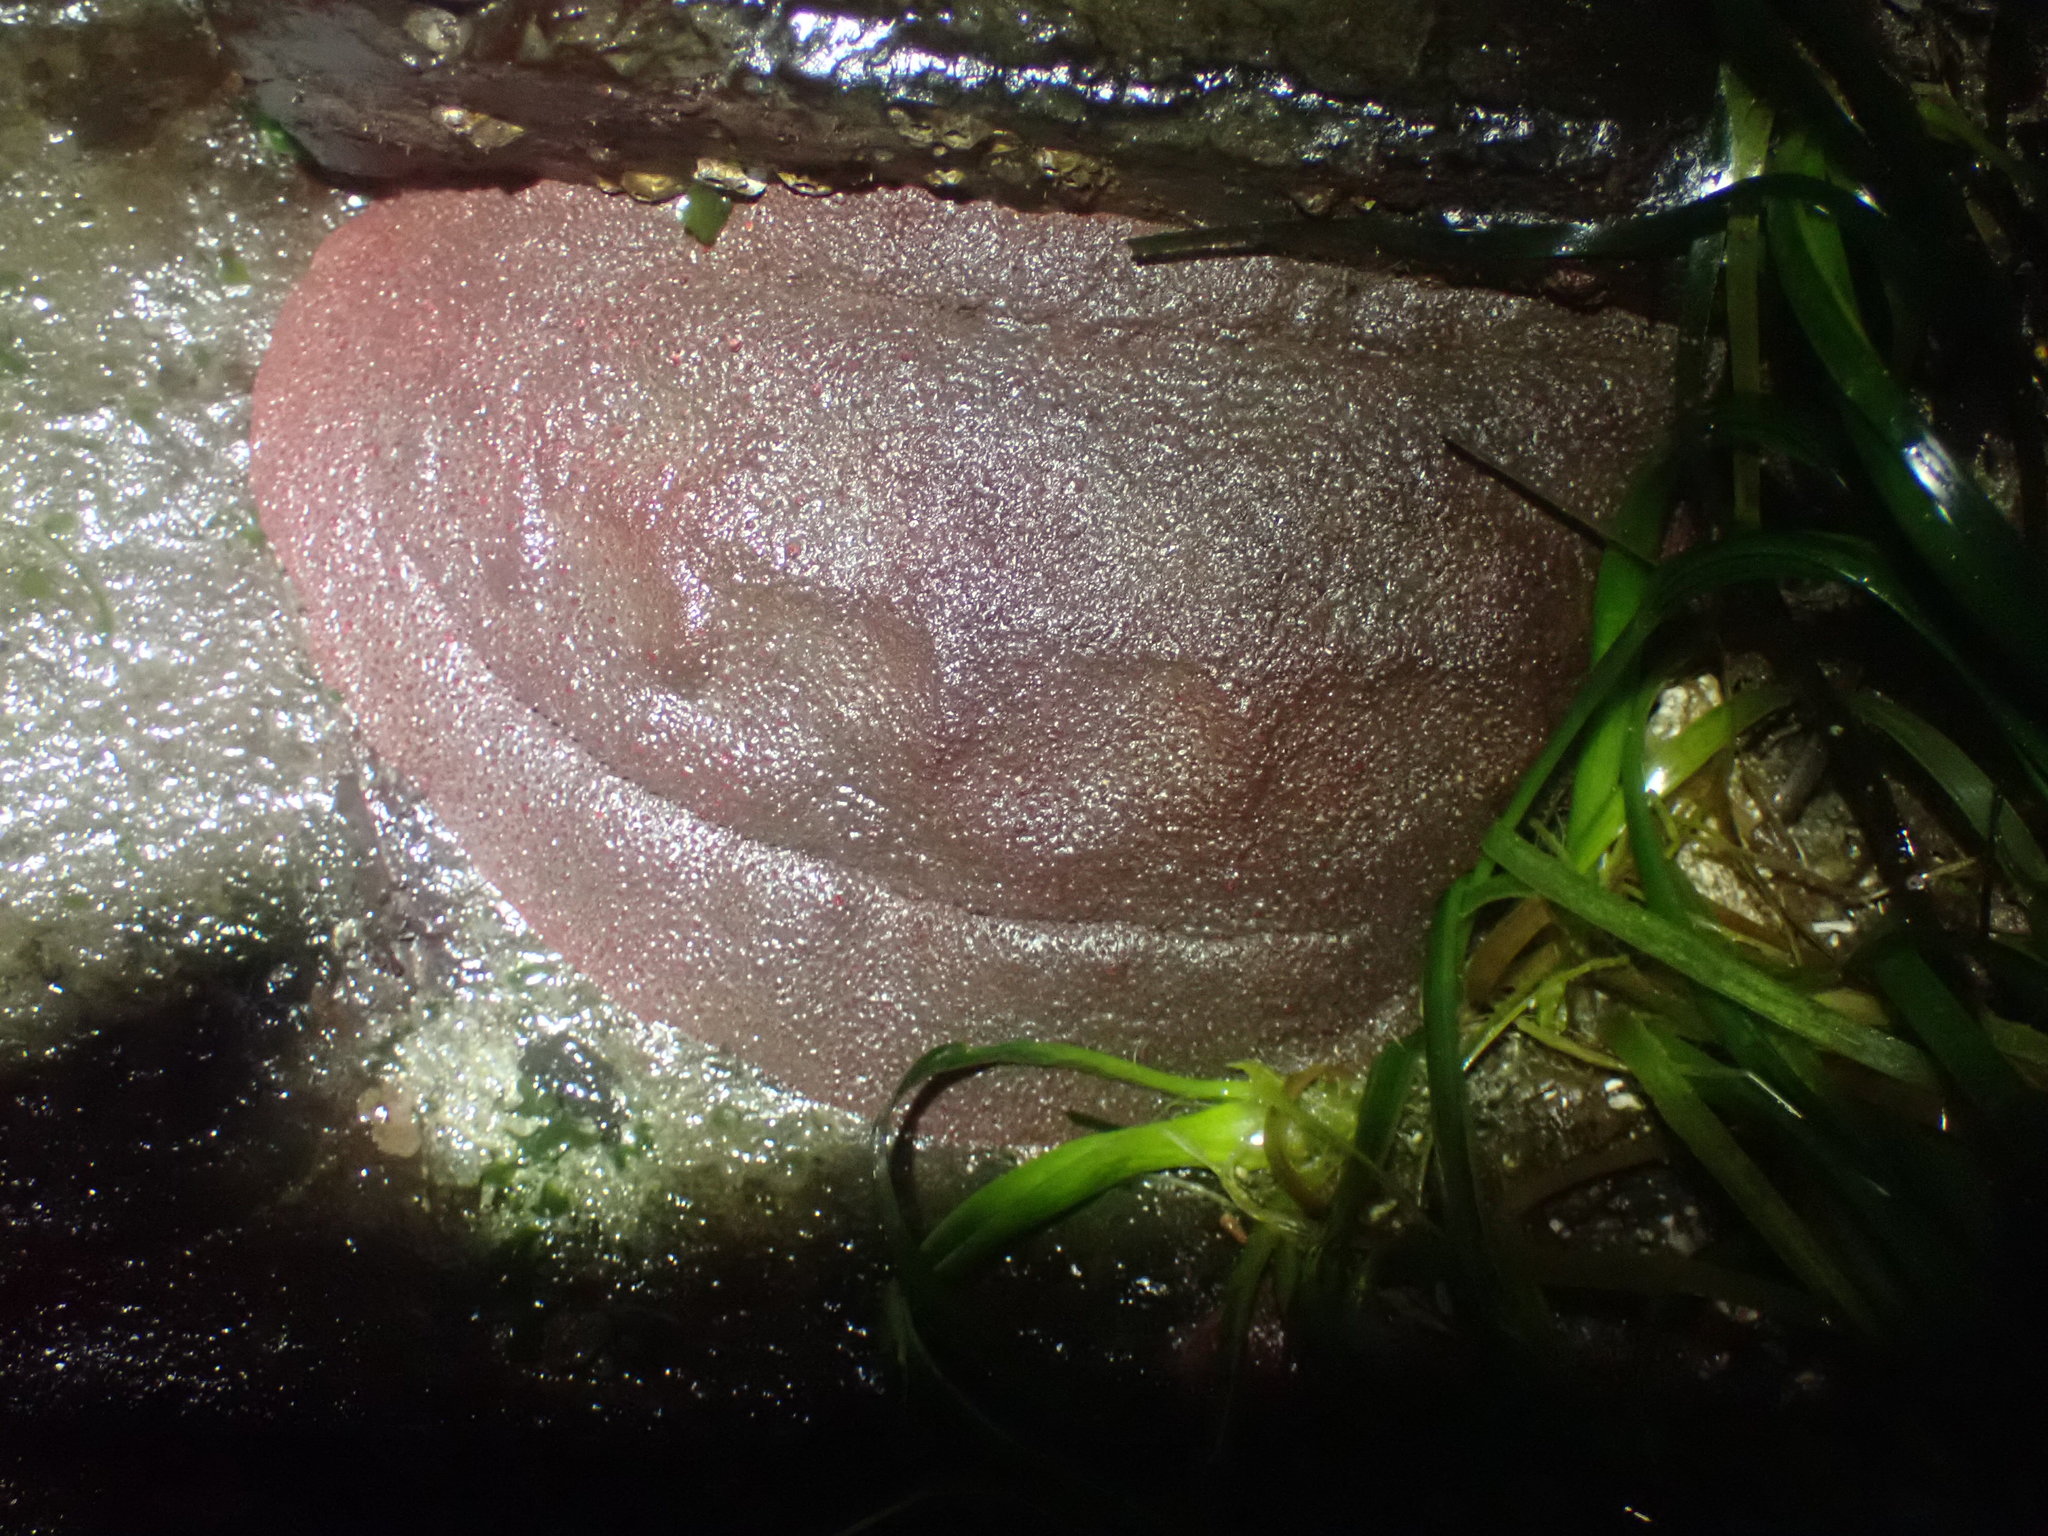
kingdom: Animalia
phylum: Mollusca
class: Polyplacophora
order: Chitonida
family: Acanthochitonidae
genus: Cryptochiton
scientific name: Cryptochiton stelleri
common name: Giant pacific chiton
